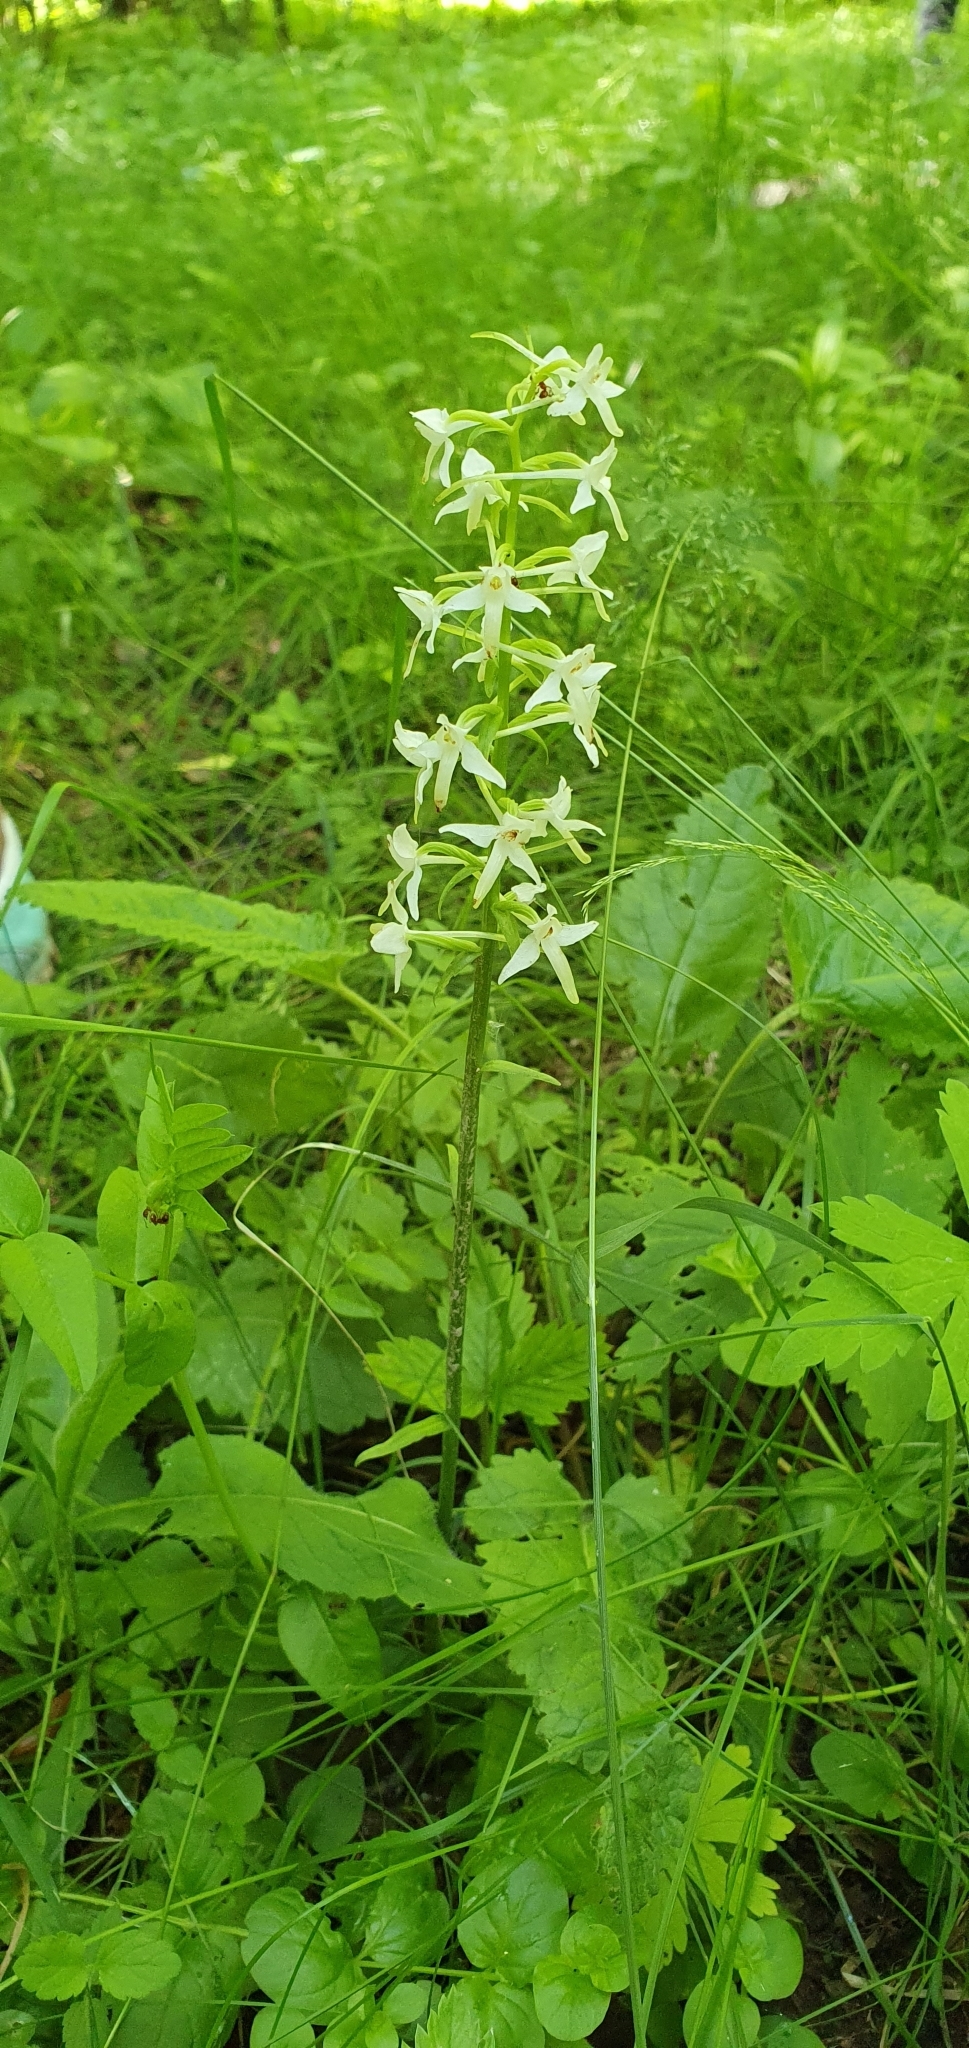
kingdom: Plantae
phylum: Tracheophyta
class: Liliopsida
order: Asparagales
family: Orchidaceae
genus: Platanthera
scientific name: Platanthera bifolia
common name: Lesser butterfly-orchid
